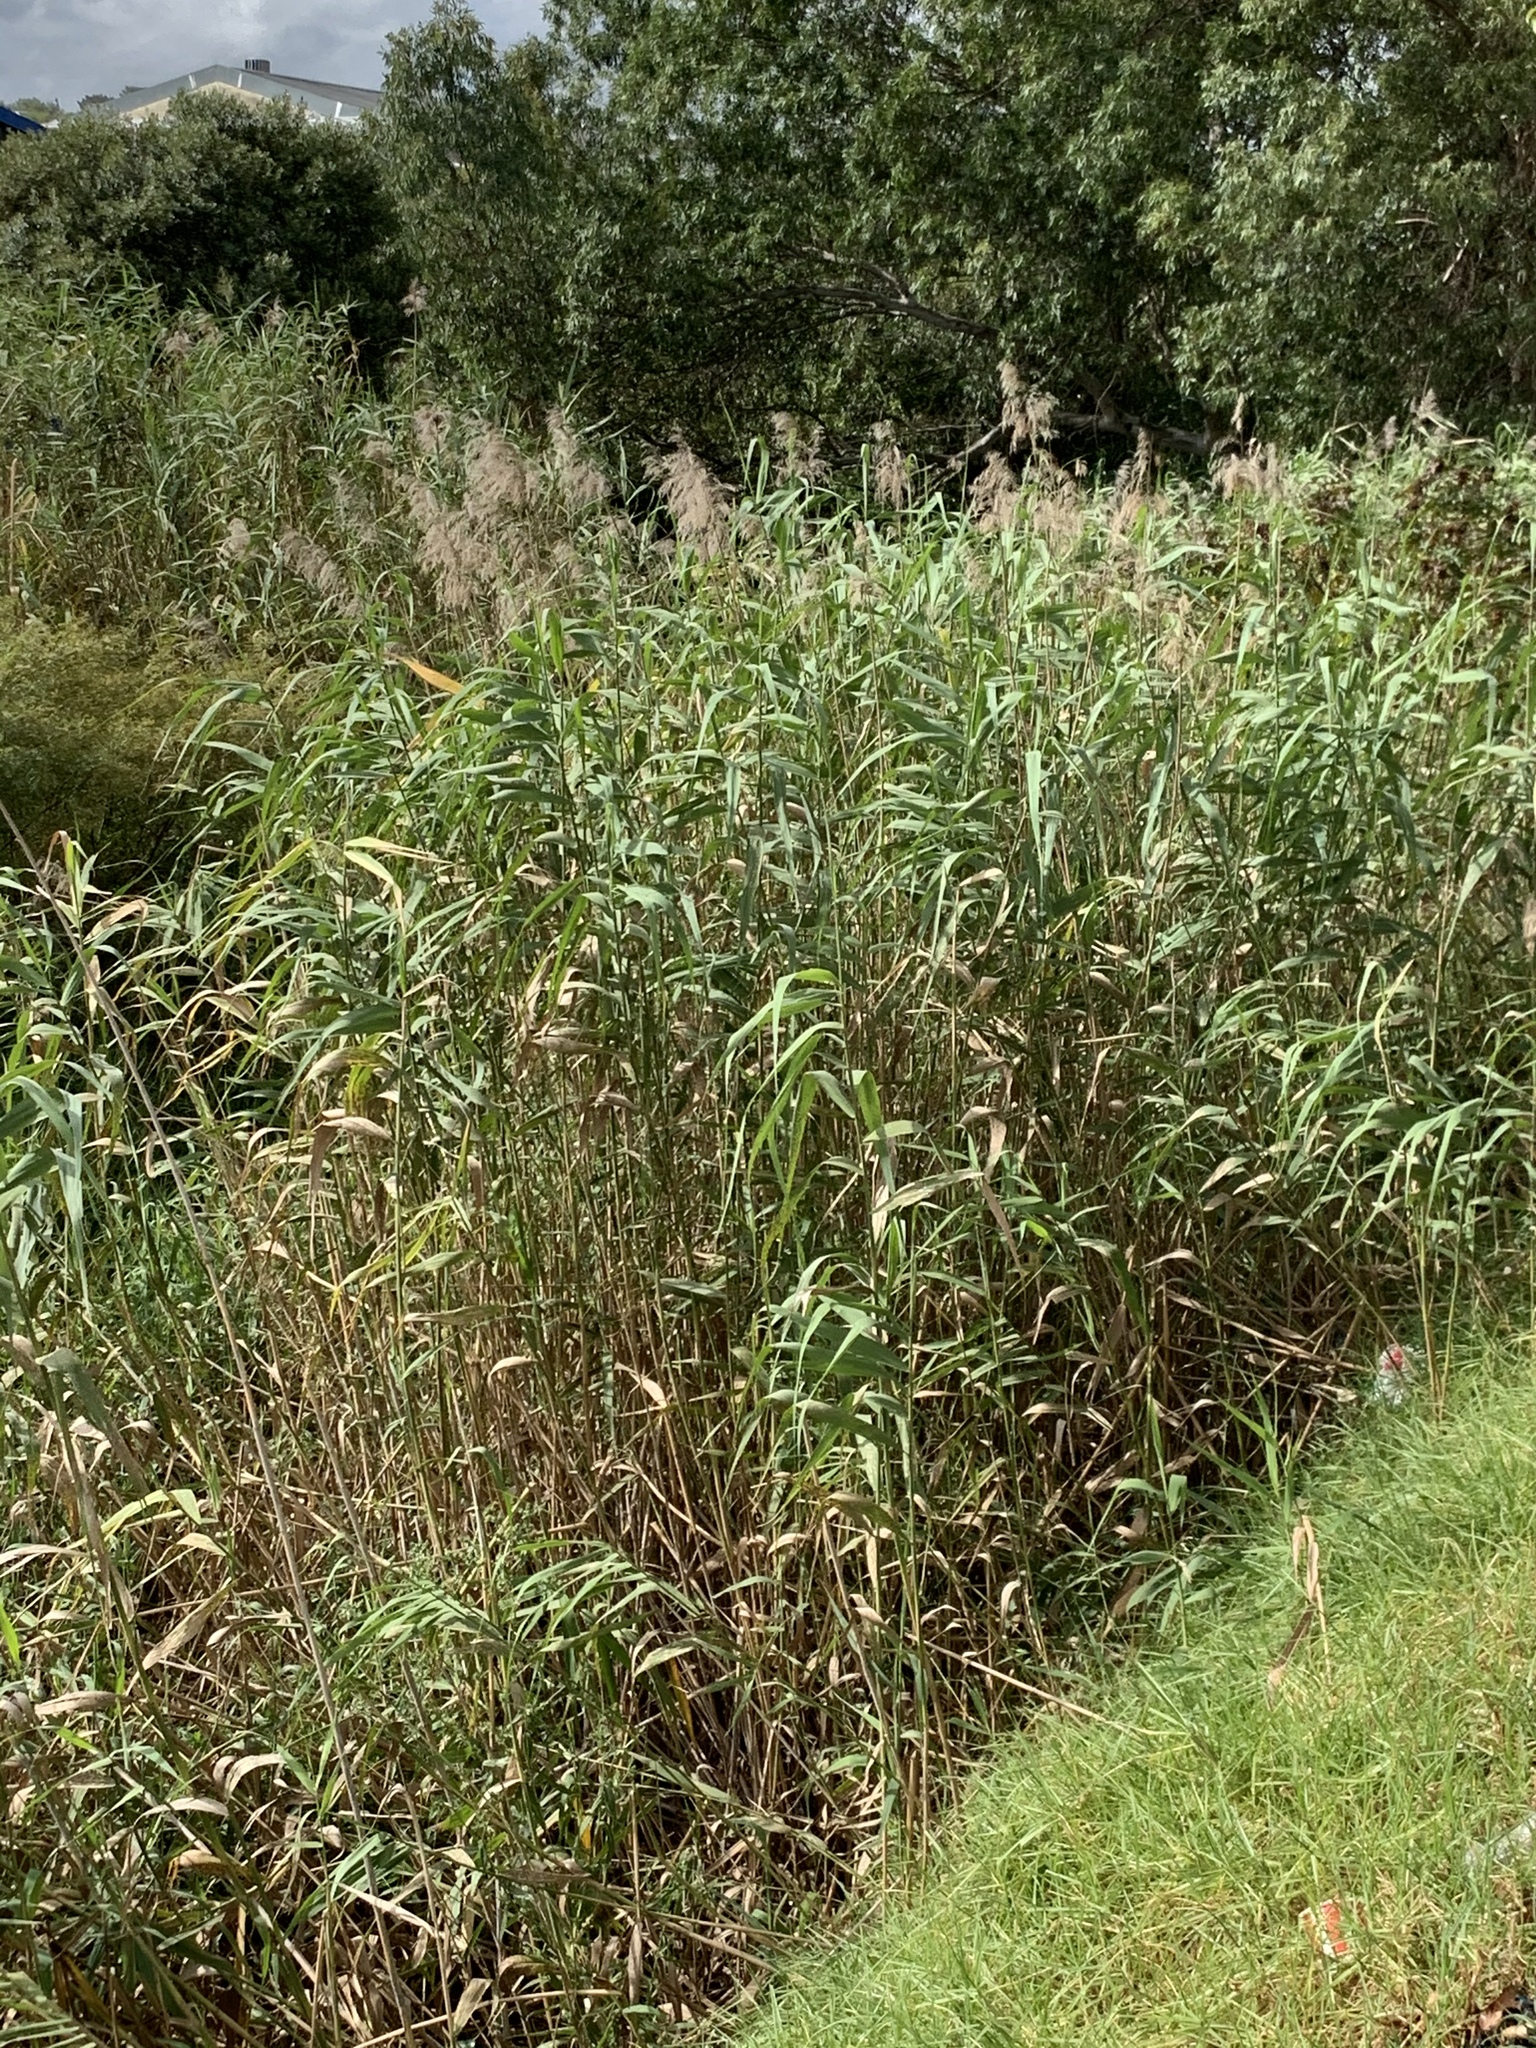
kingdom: Plantae
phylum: Tracheophyta
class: Liliopsida
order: Poales
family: Poaceae
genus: Phragmites
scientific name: Phragmites australis
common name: Common reed
